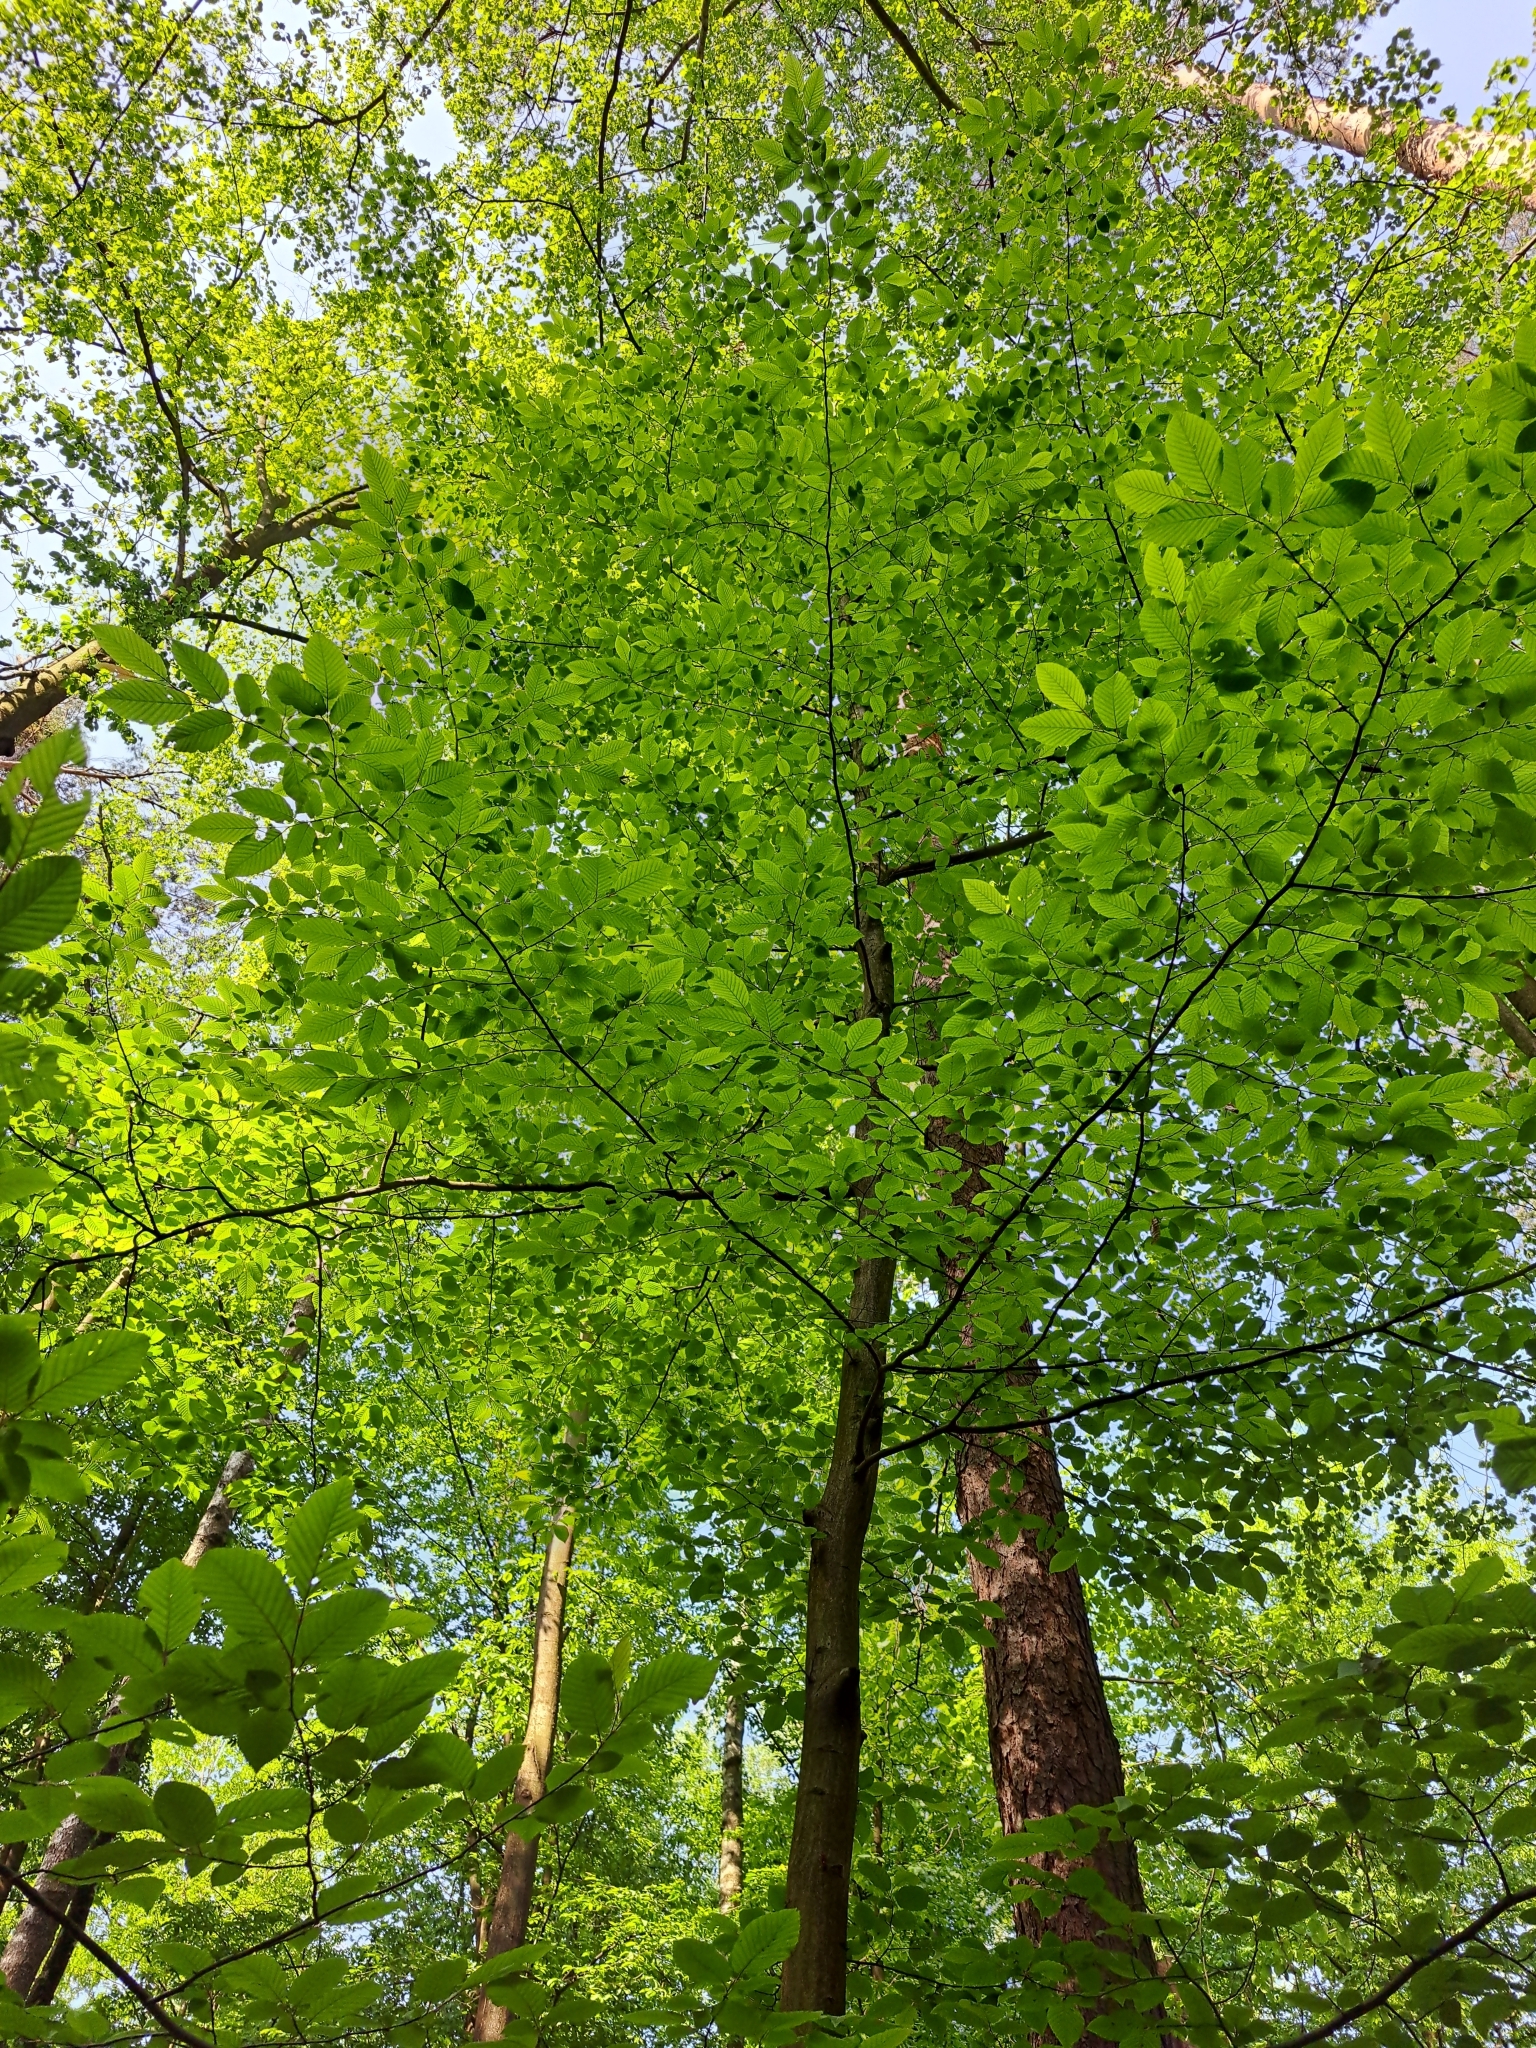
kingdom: Plantae
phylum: Tracheophyta
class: Magnoliopsida
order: Fagales
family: Betulaceae
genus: Carpinus
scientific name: Carpinus betulus
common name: Hornbeam
